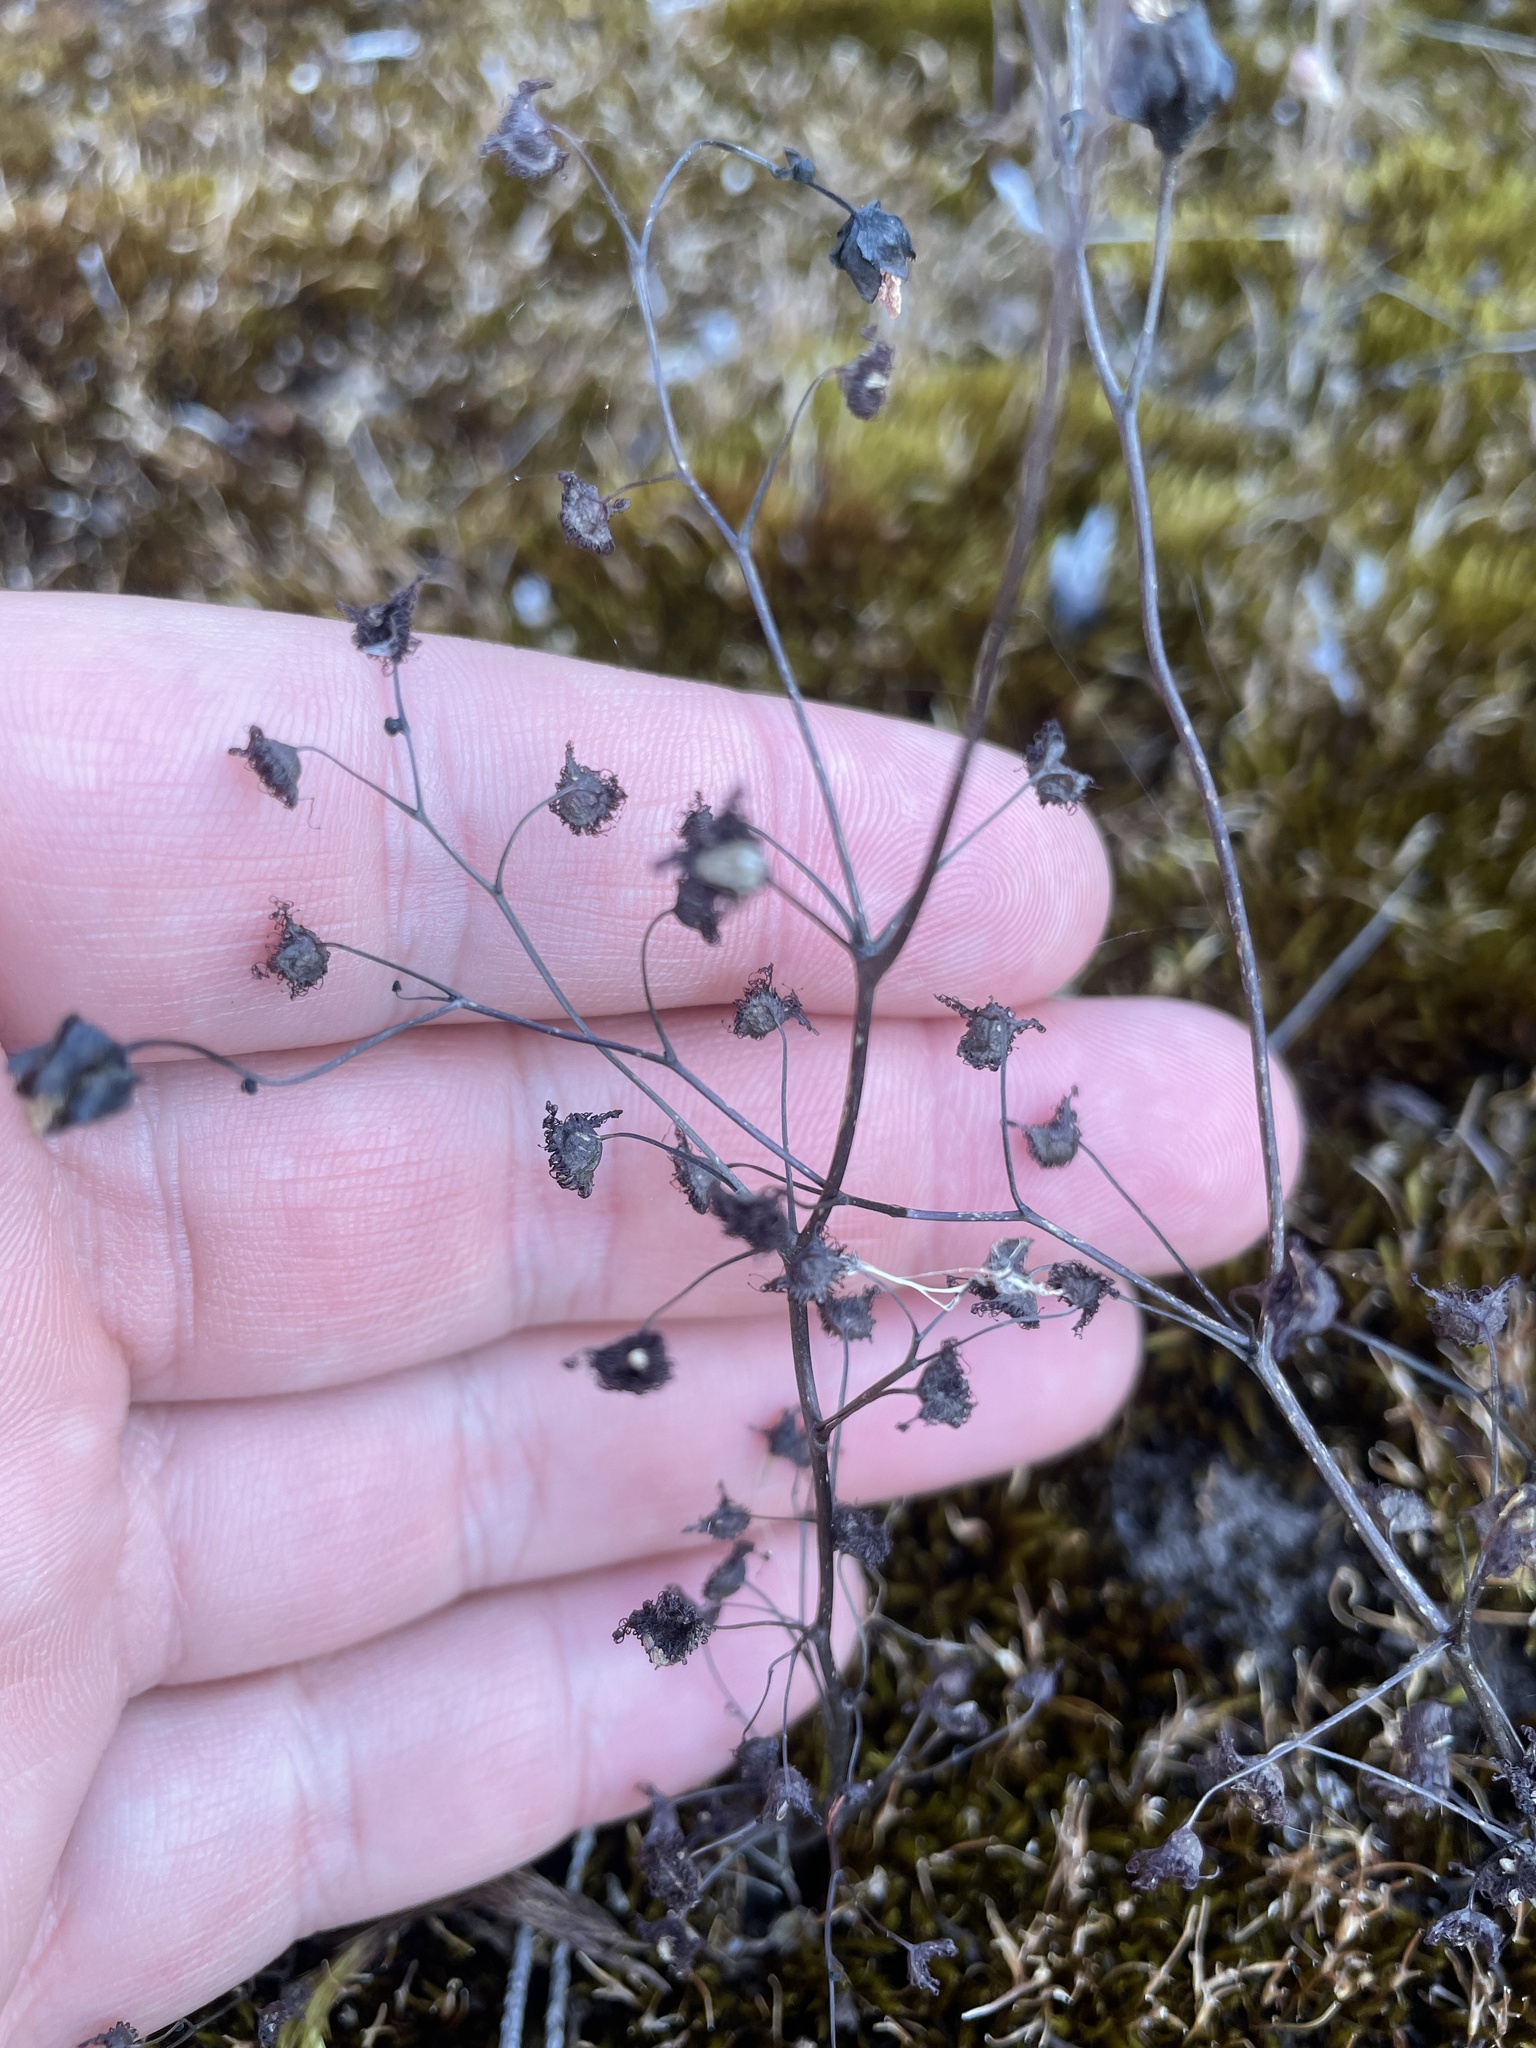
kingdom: Plantae
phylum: Tracheophyta
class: Magnoliopsida
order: Caryophyllales
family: Droseraceae
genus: Drosera
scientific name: Drosera peltata
